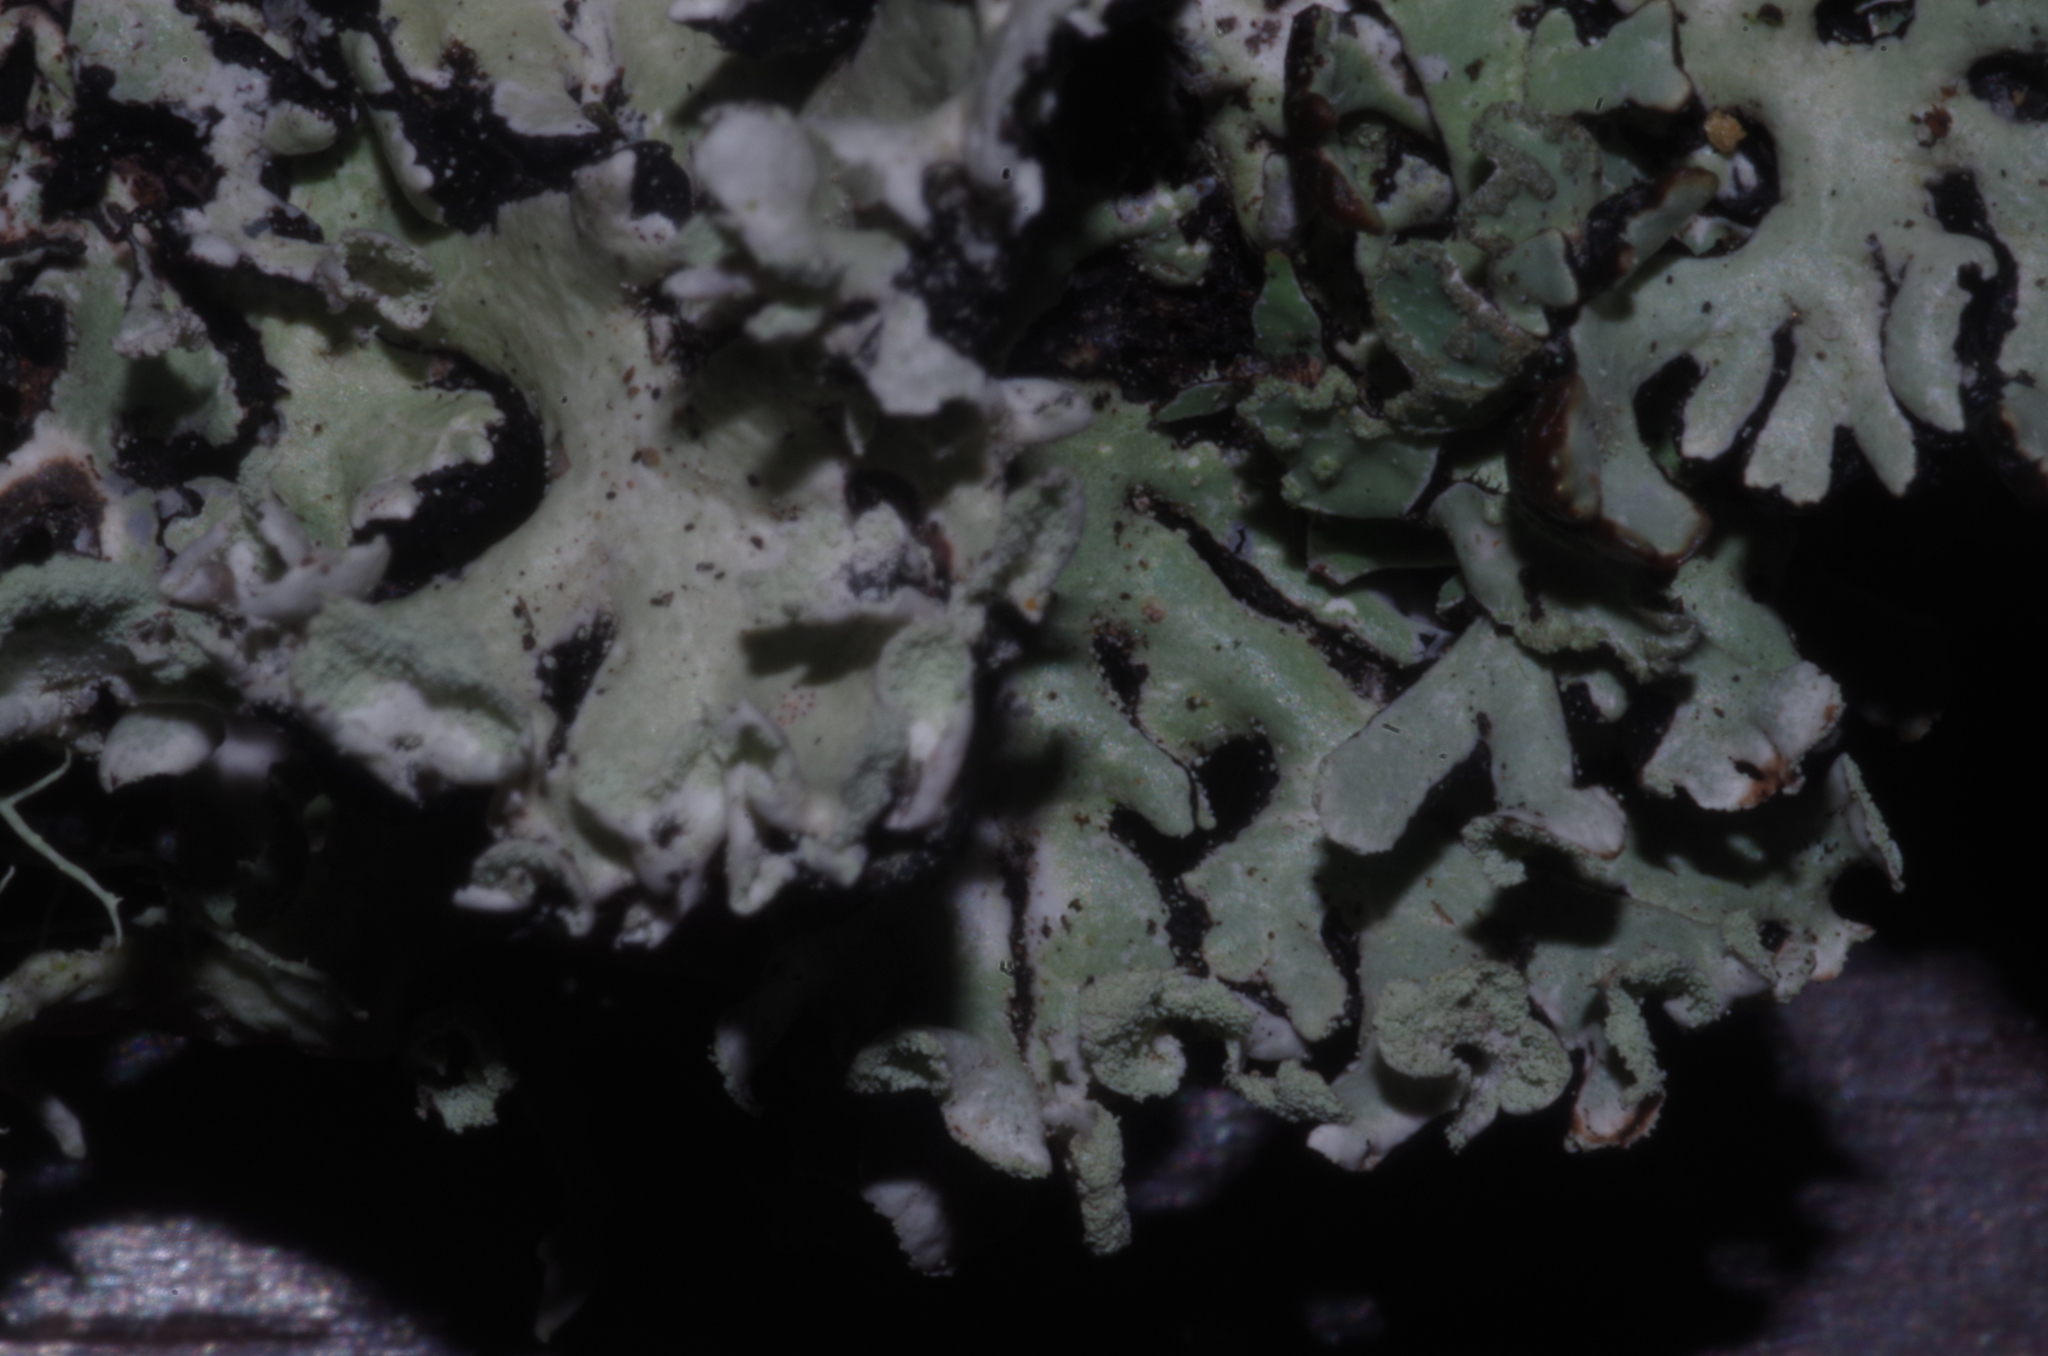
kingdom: Fungi
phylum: Ascomycota
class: Lecanoromycetes
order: Lecanorales
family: Parmeliaceae
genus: Hypogymnia
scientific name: Hypogymnia physodes
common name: Dark crottle
